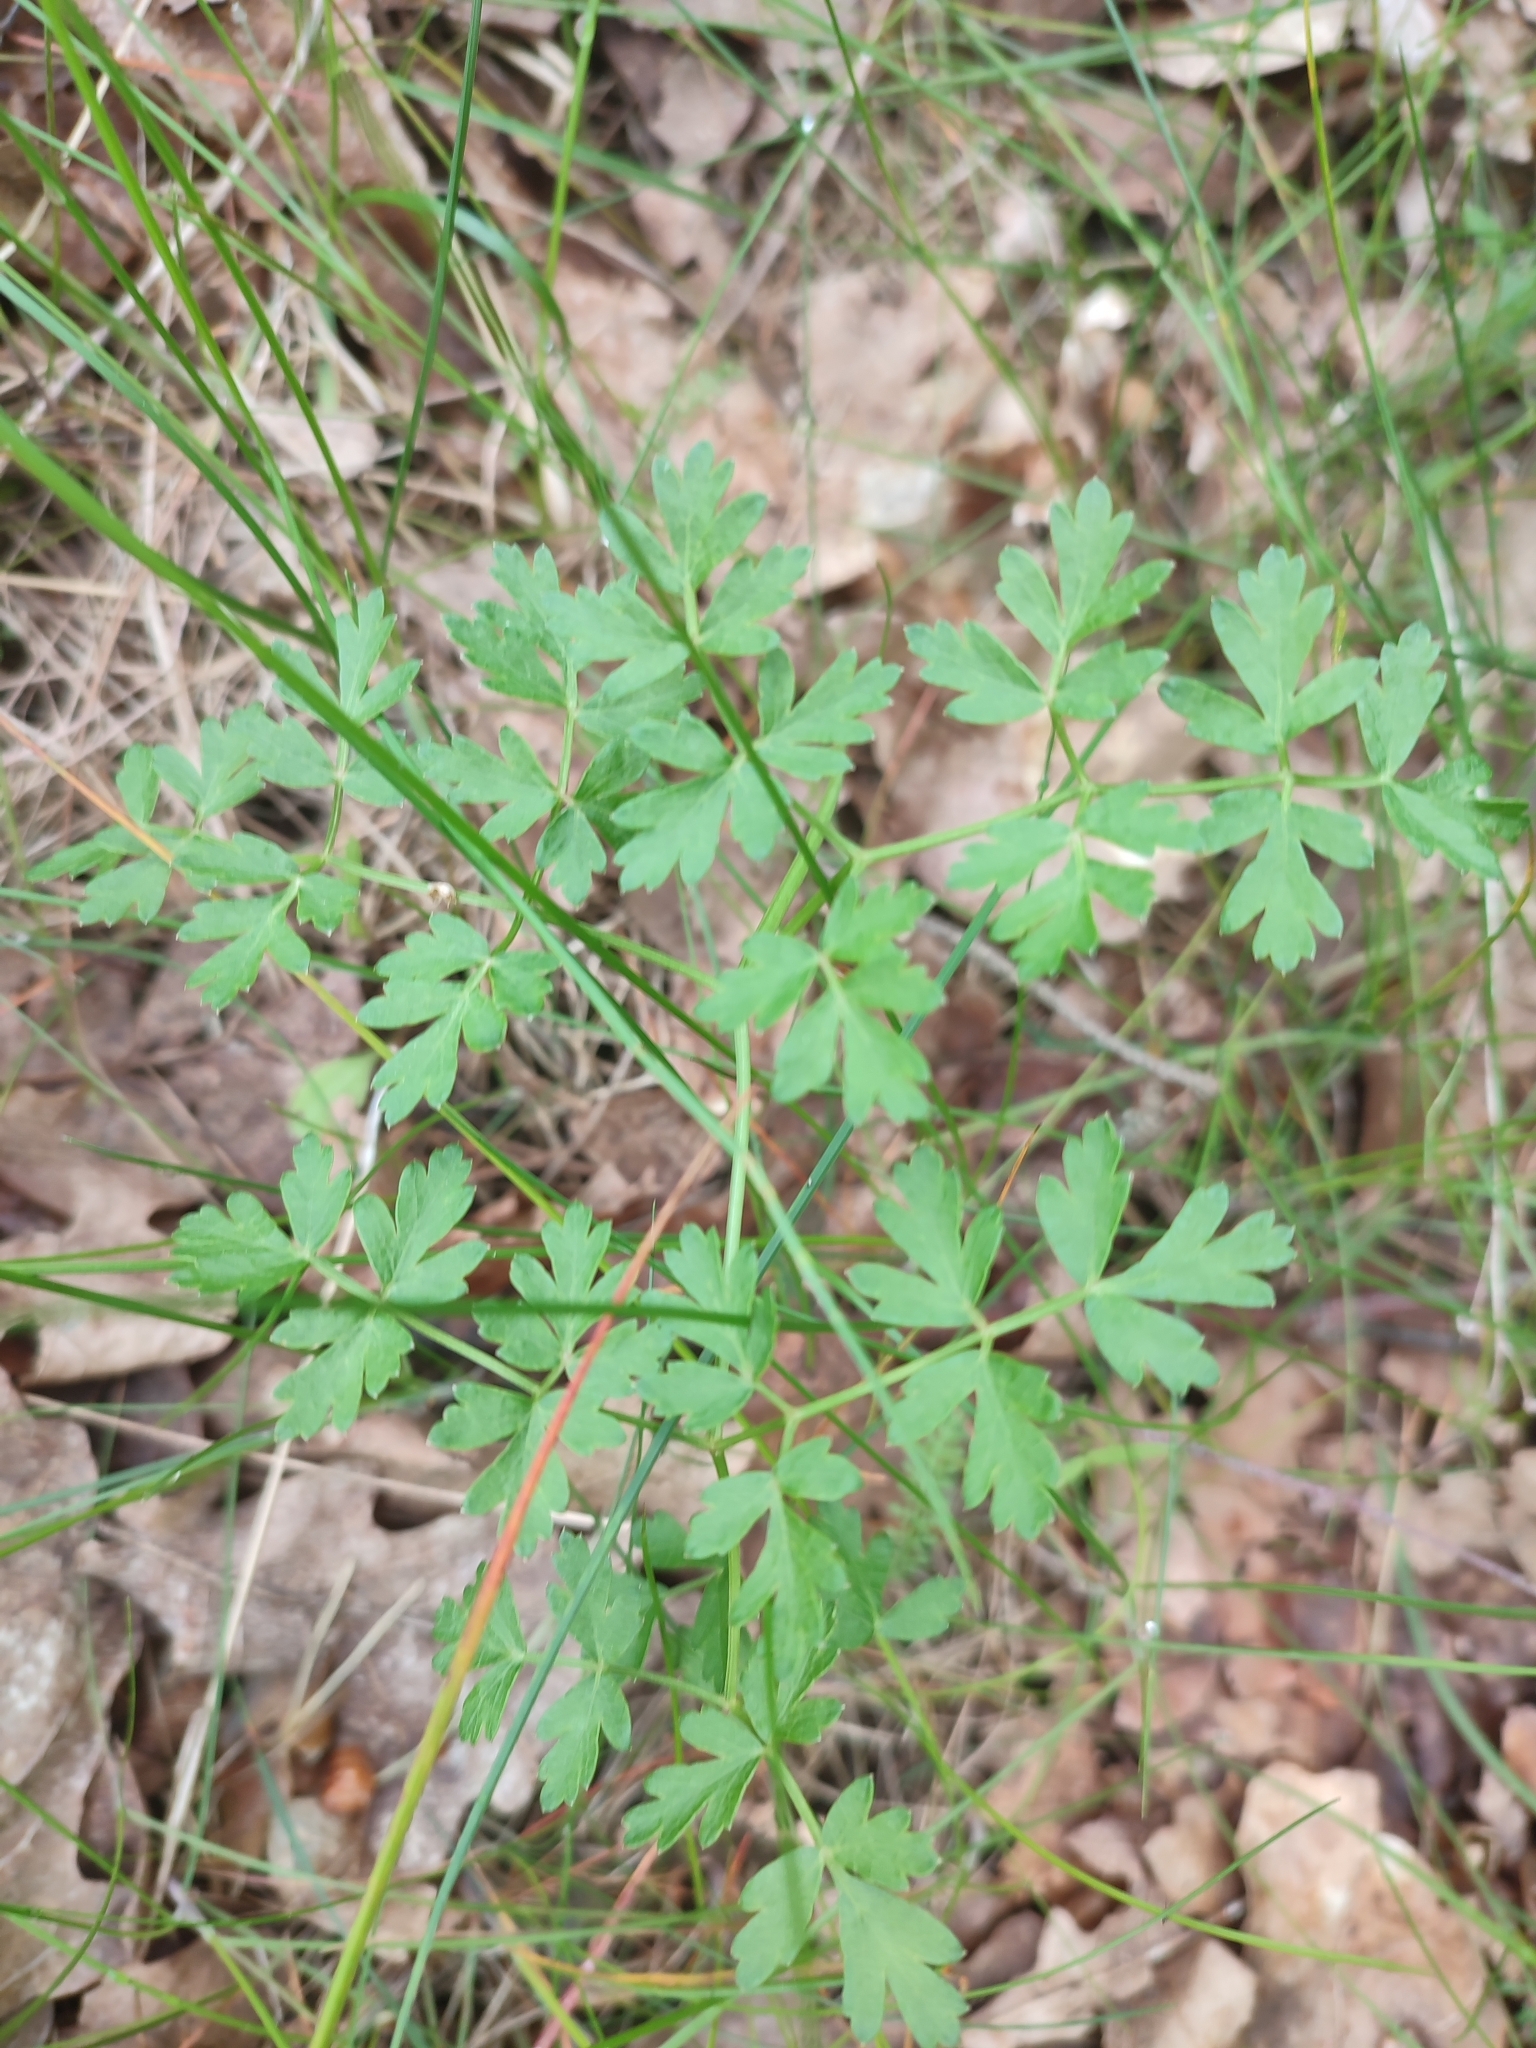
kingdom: Plantae
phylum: Tracheophyta
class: Magnoliopsida
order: Apiales
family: Apiaceae
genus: Oreoselinum
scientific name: Oreoselinum nigrum
